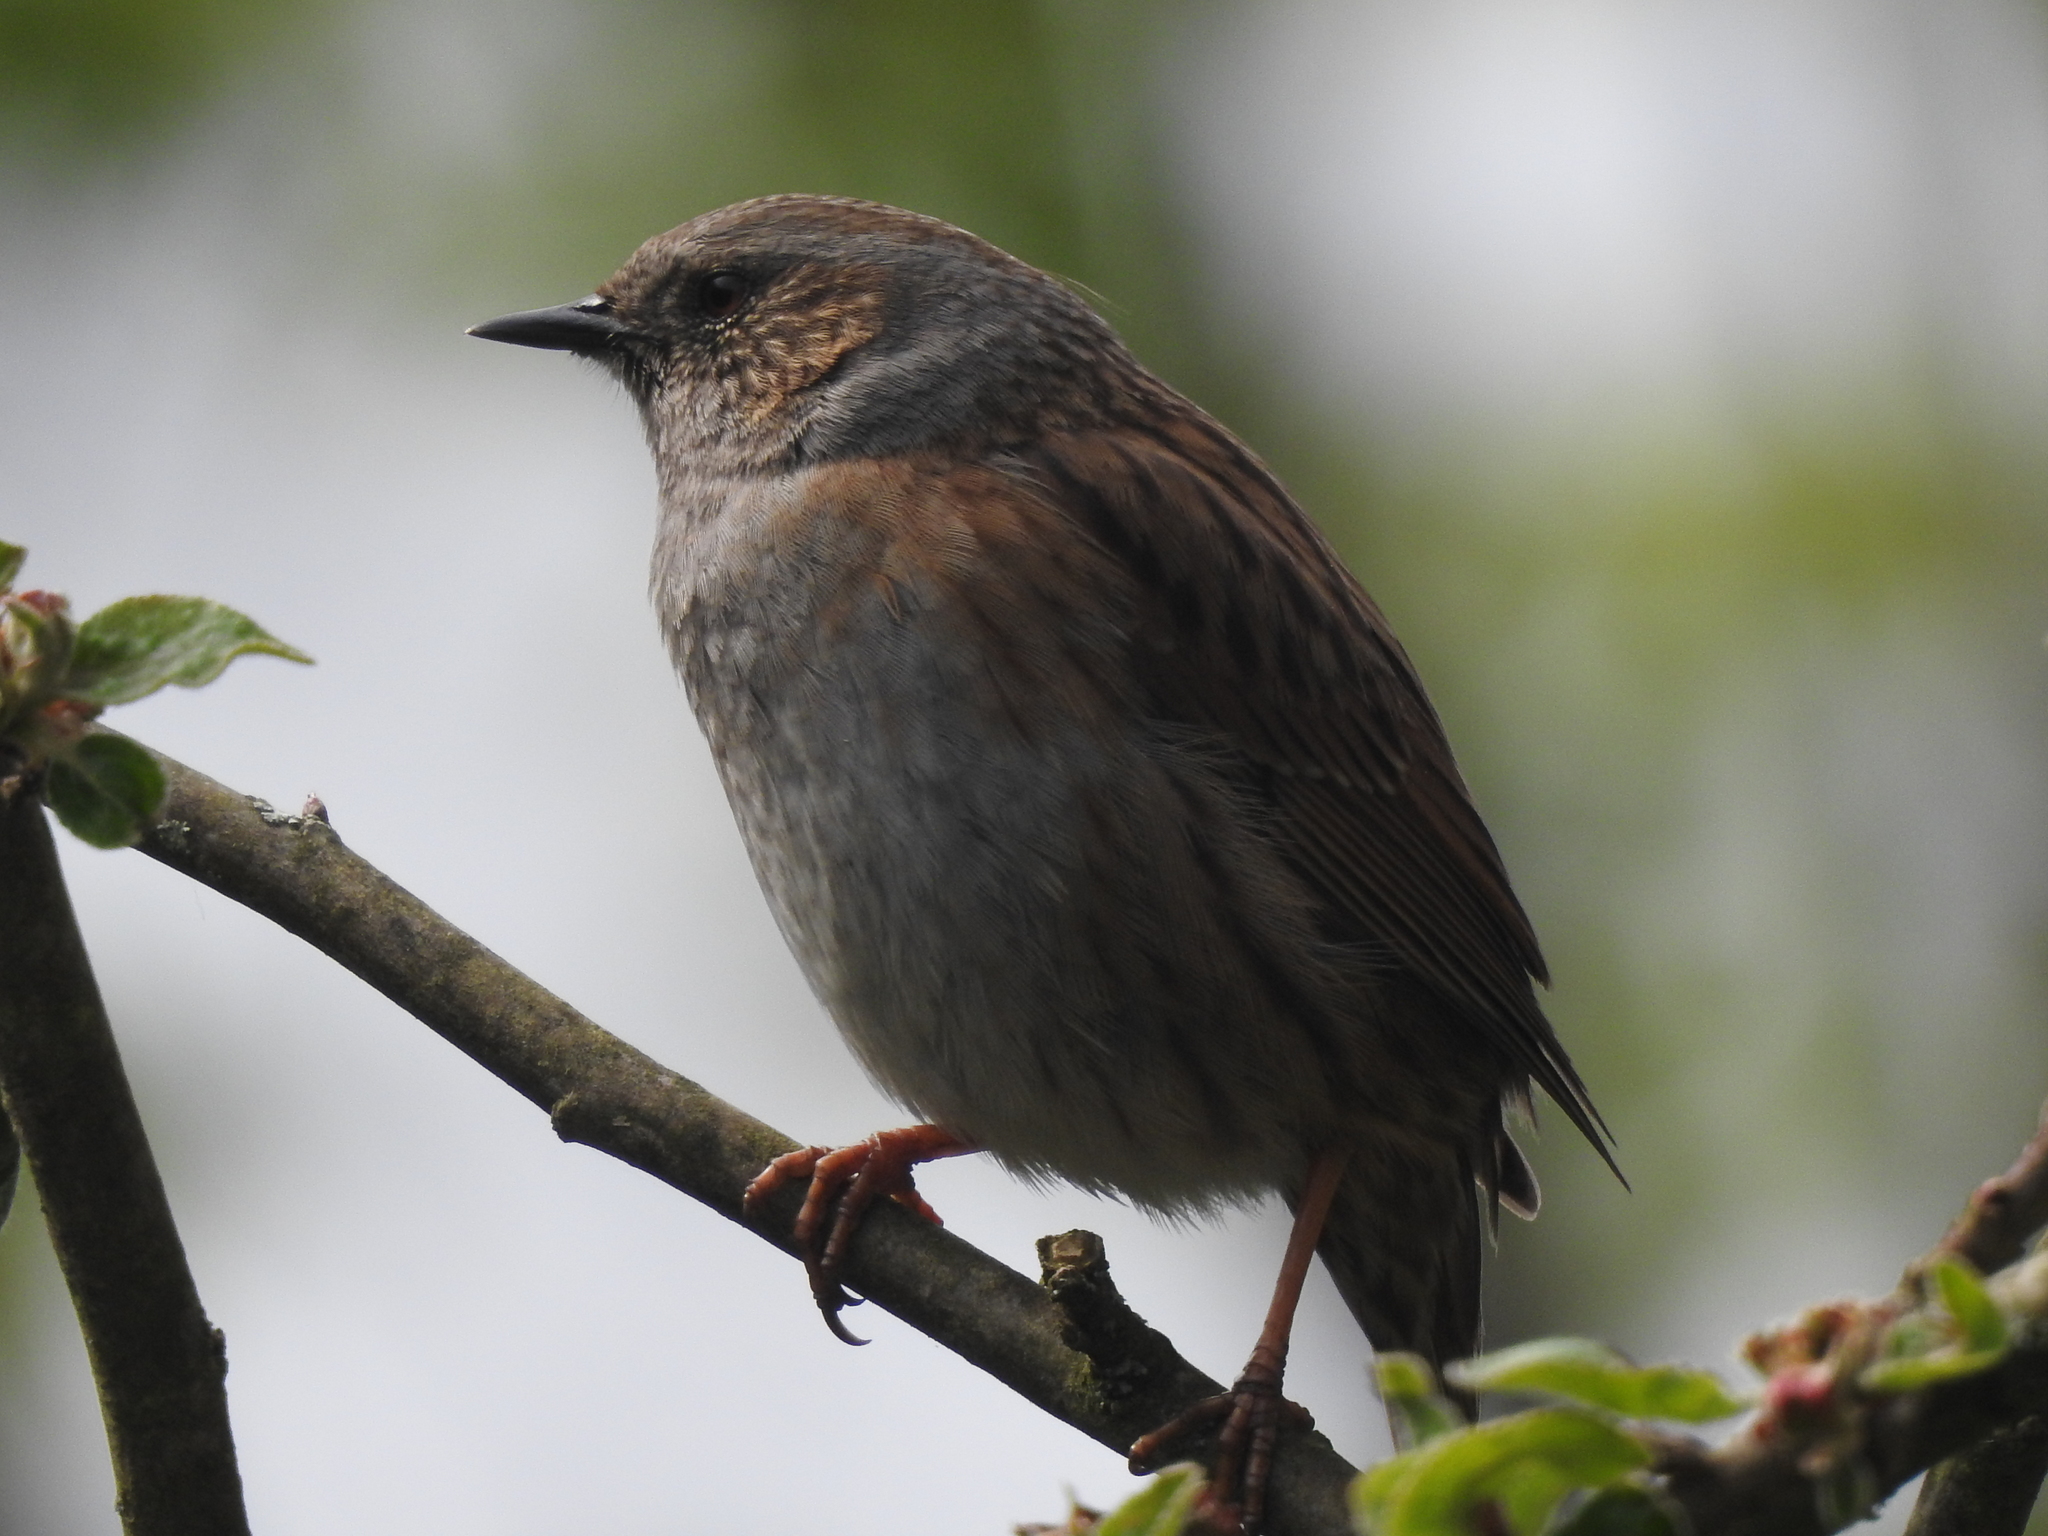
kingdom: Animalia
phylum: Chordata
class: Aves
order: Passeriformes
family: Prunellidae
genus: Prunella
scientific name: Prunella modularis
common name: Dunnock
